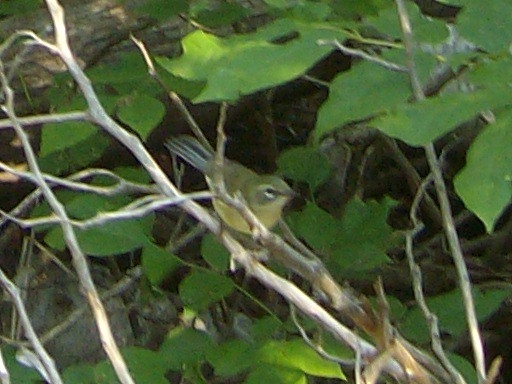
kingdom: Animalia
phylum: Chordata
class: Aves
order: Passeriformes
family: Parulidae
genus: Setophaga
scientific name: Setophaga caerulescens
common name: Black-throated blue warbler
